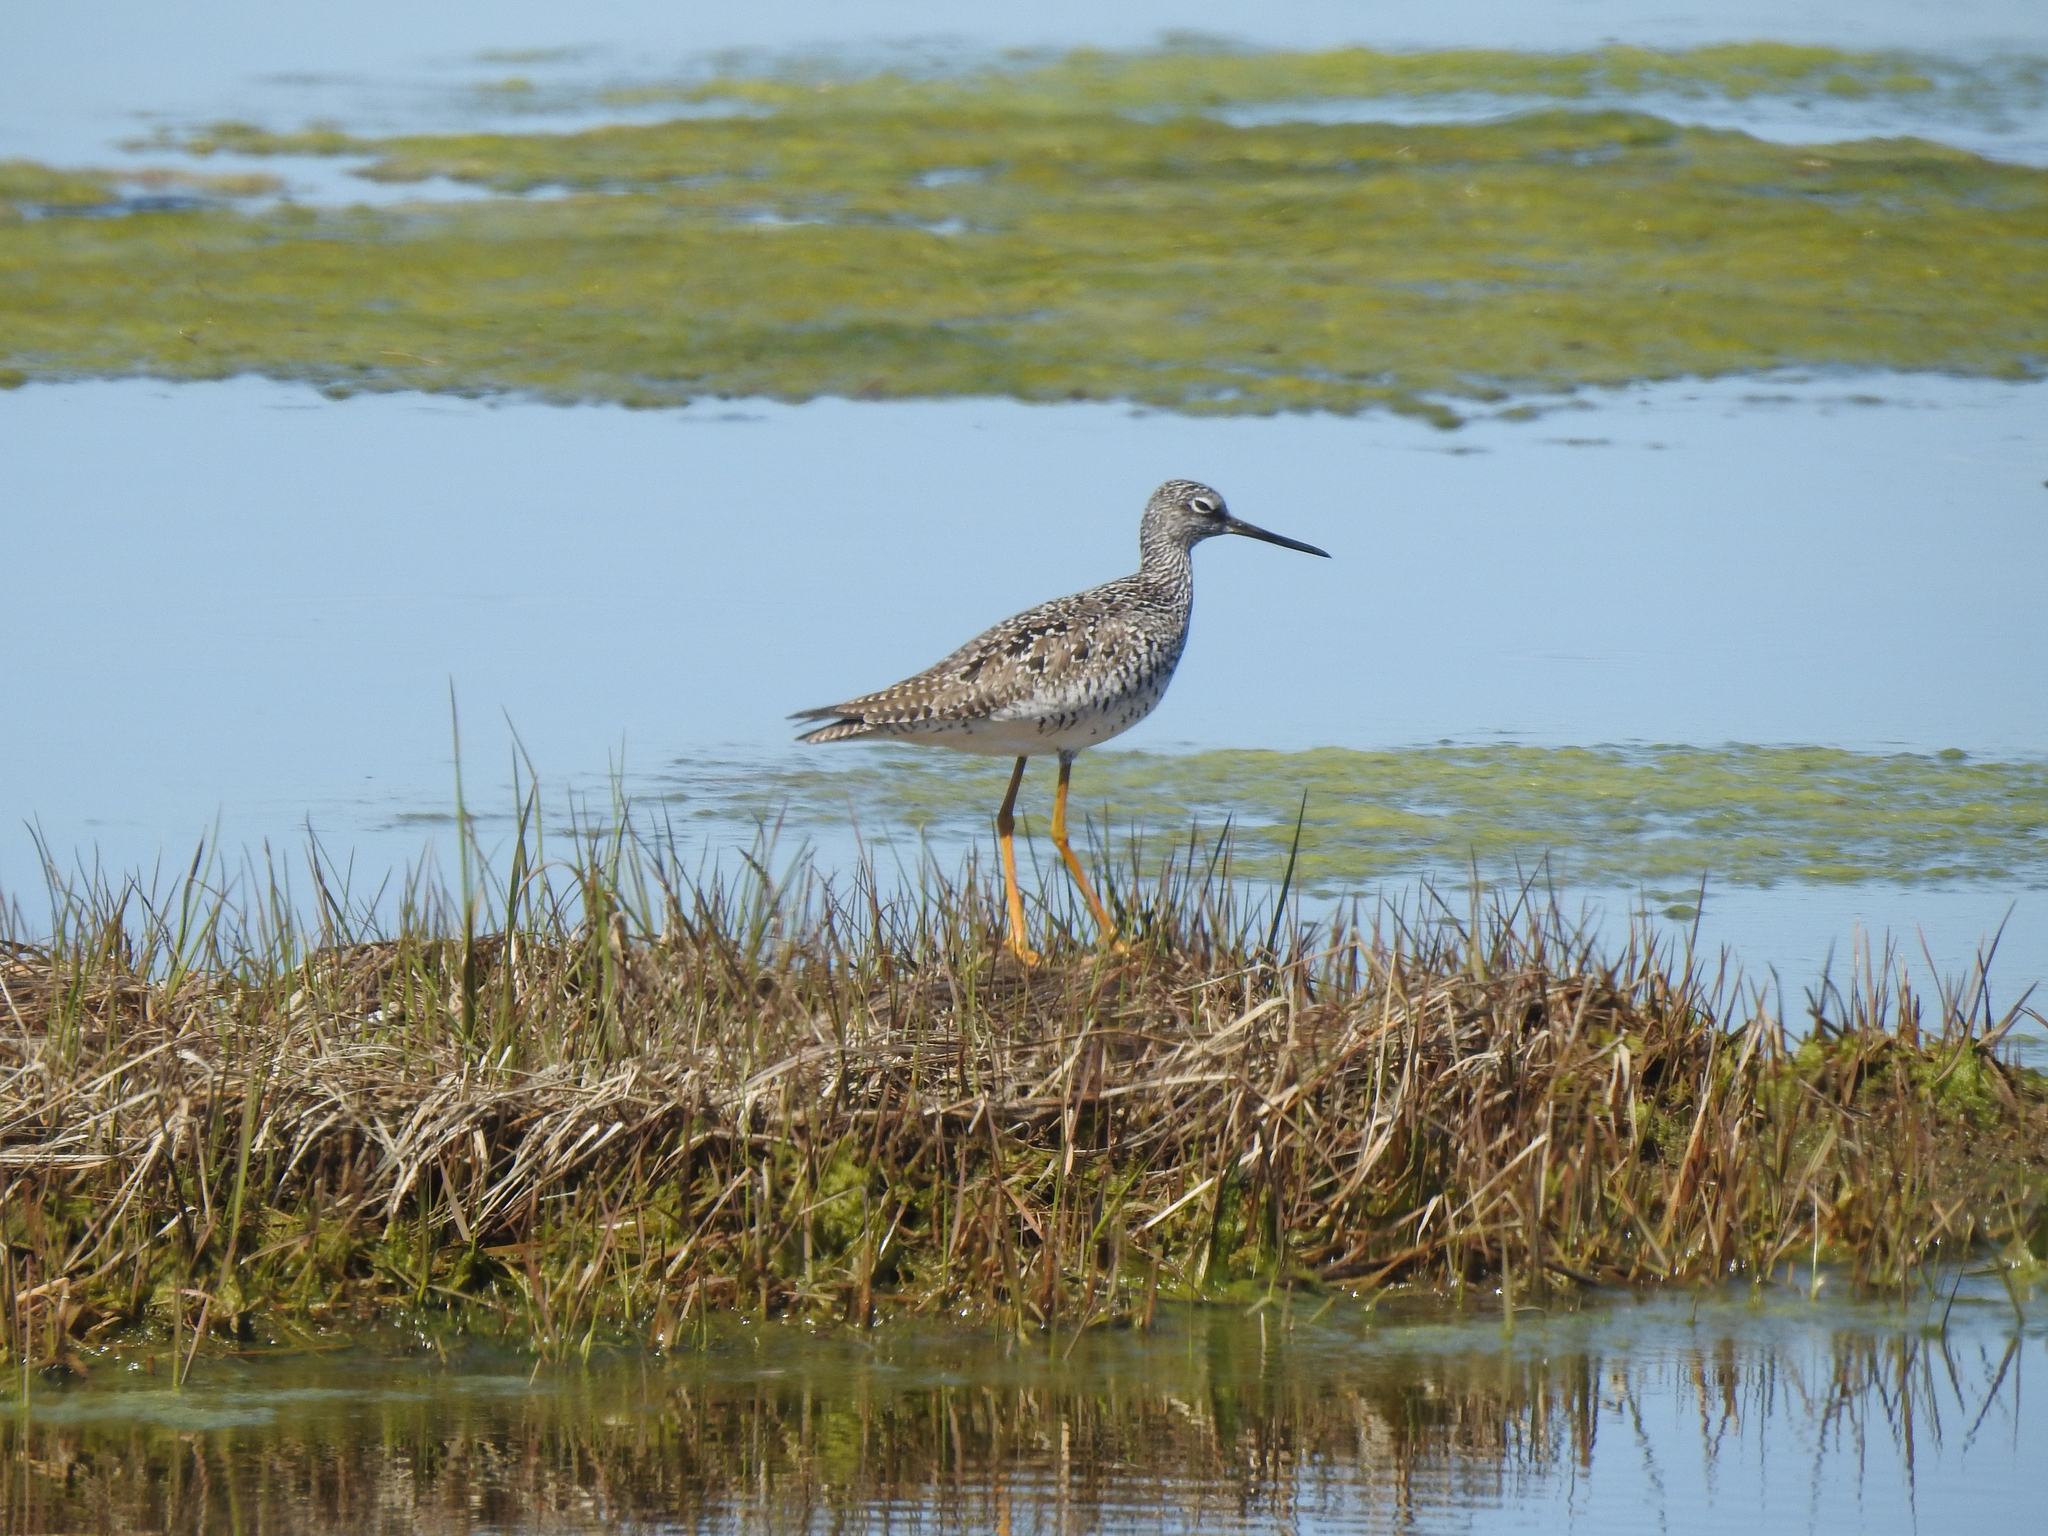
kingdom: Animalia
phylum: Chordata
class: Aves
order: Charadriiformes
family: Scolopacidae
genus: Tringa
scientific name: Tringa melanoleuca
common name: Greater yellowlegs
